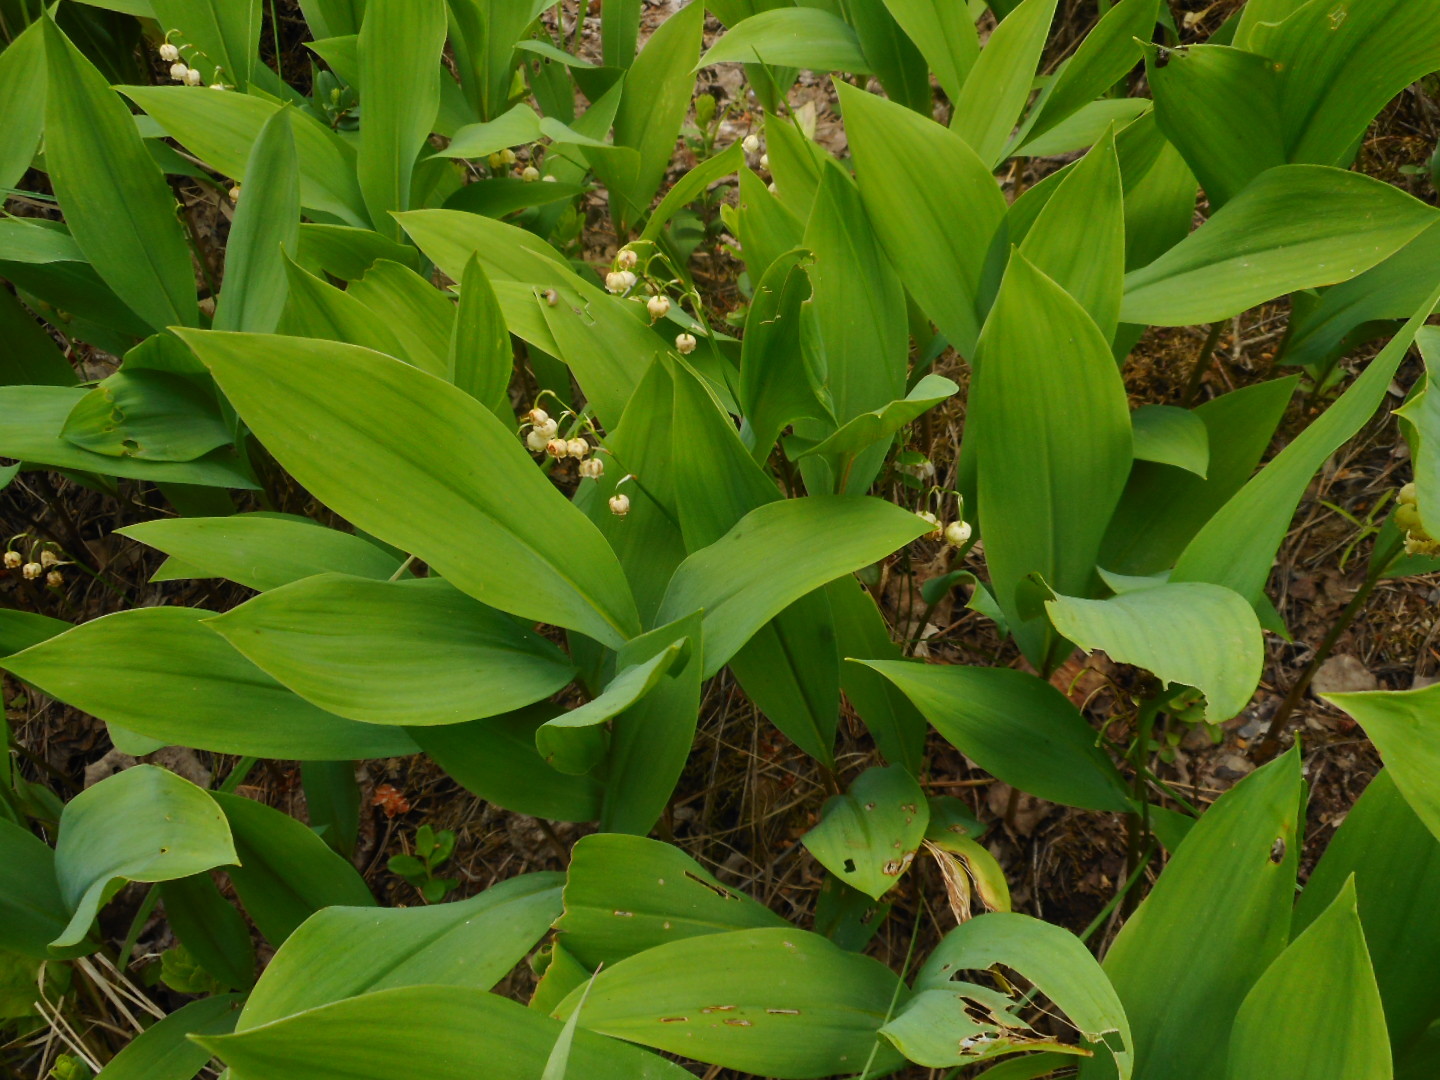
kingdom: Plantae
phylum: Tracheophyta
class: Liliopsida
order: Asparagales
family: Asparagaceae
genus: Convallaria
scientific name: Convallaria majalis
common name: Lily-of-the-valley
